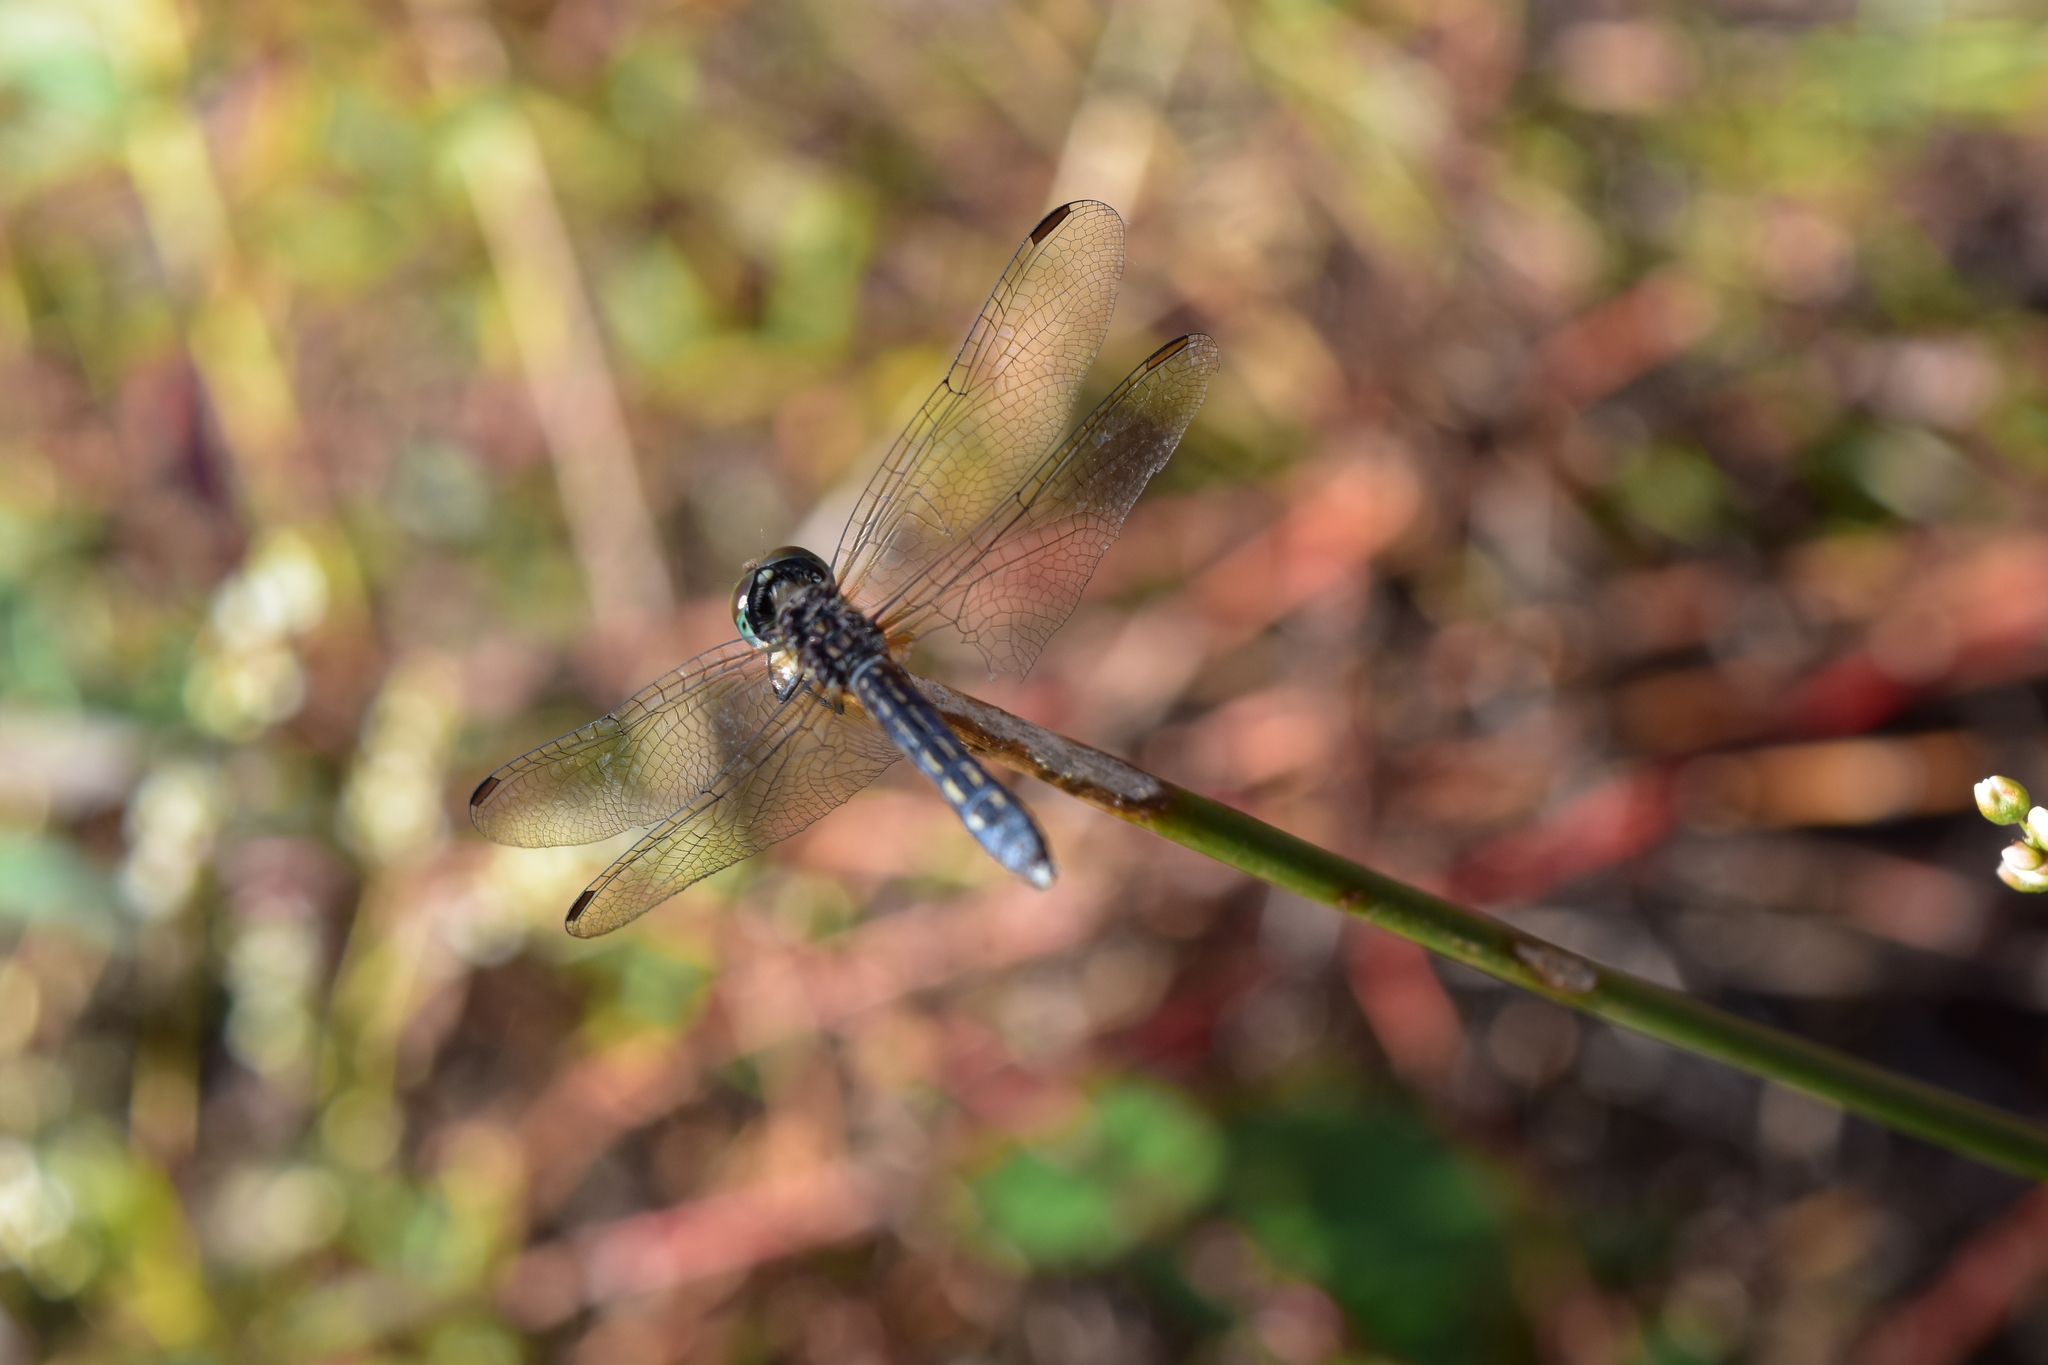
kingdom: Animalia
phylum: Arthropoda
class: Insecta
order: Odonata
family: Libellulidae
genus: Pachydiplax
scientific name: Pachydiplax longipennis
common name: Blue dasher
